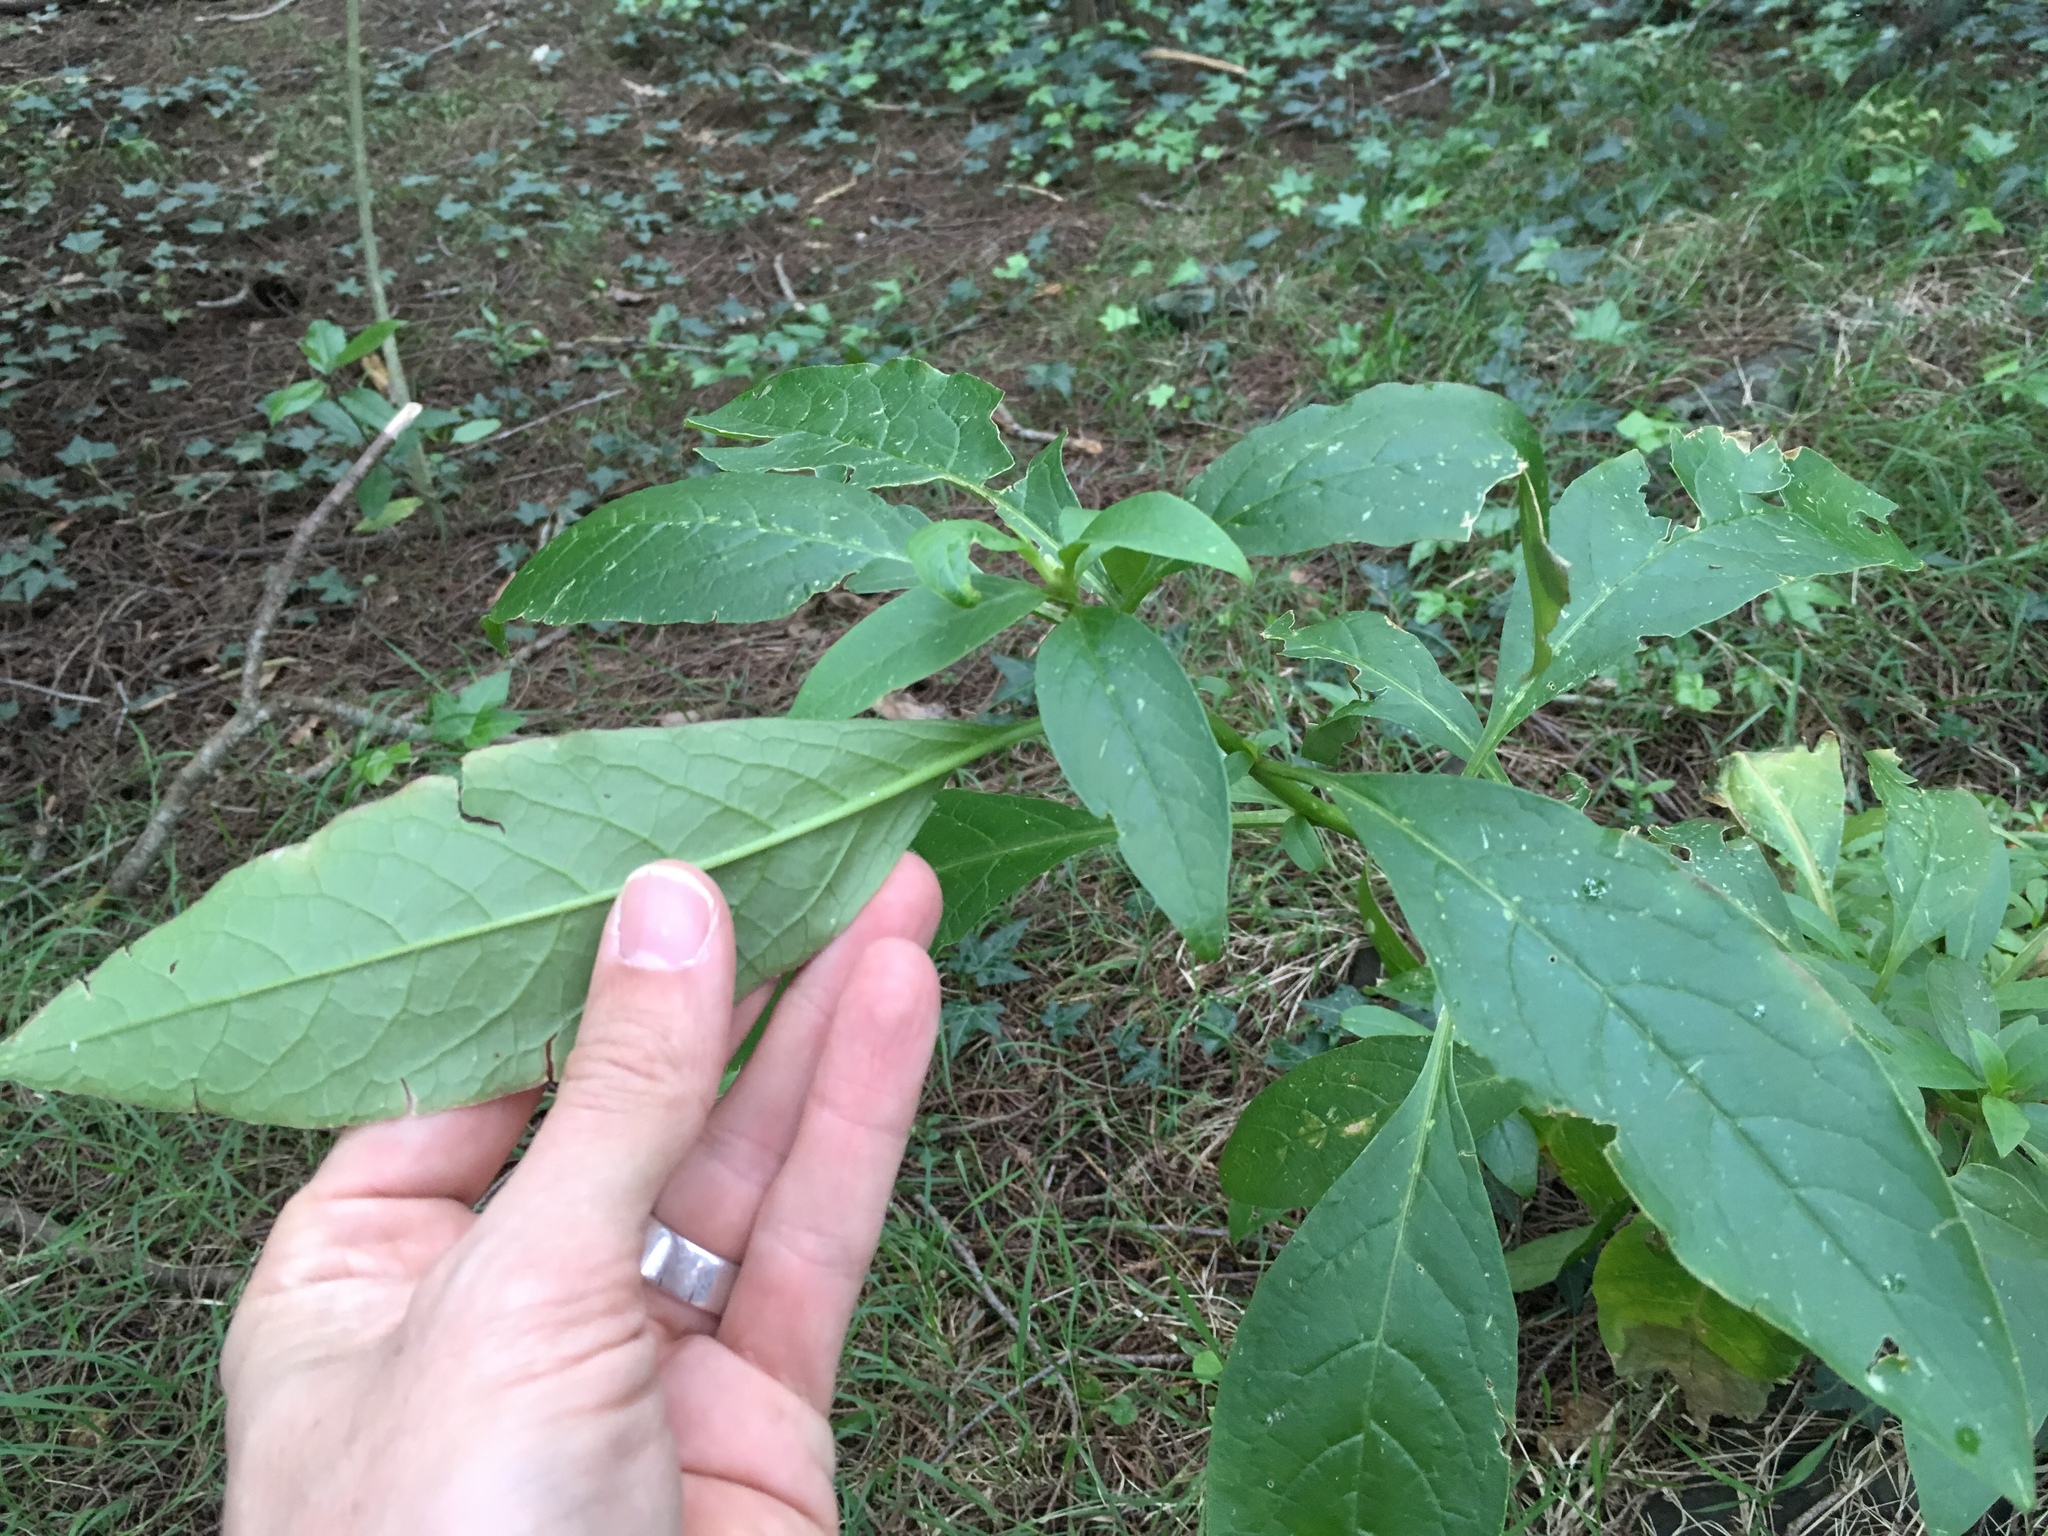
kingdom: Plantae
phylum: Tracheophyta
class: Magnoliopsida
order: Caryophyllales
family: Phytolaccaceae
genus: Phytolacca
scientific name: Phytolacca icosandra
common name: Button pokeweed
